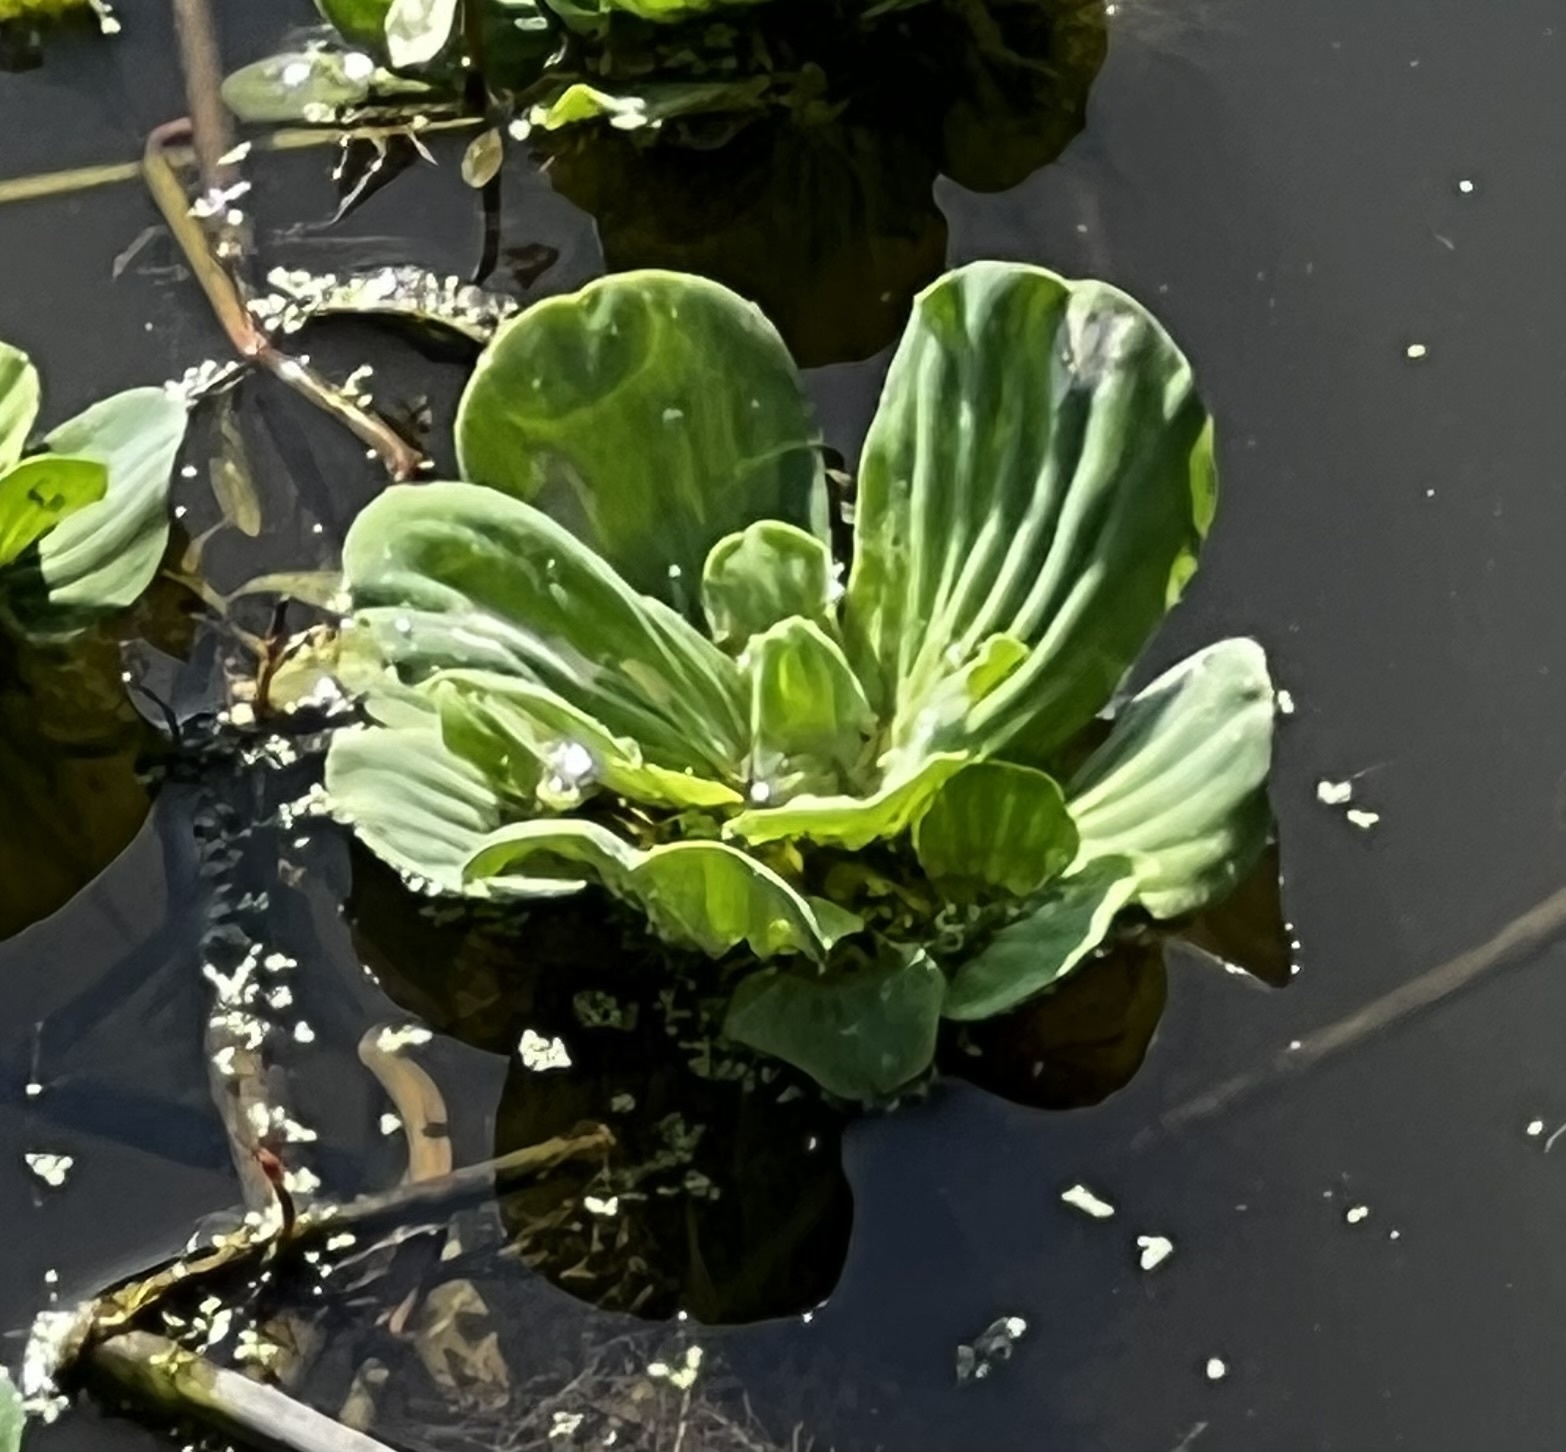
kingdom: Plantae
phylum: Tracheophyta
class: Liliopsida
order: Alismatales
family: Araceae
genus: Pistia
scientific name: Pistia stratiotes
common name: Water lettuce
